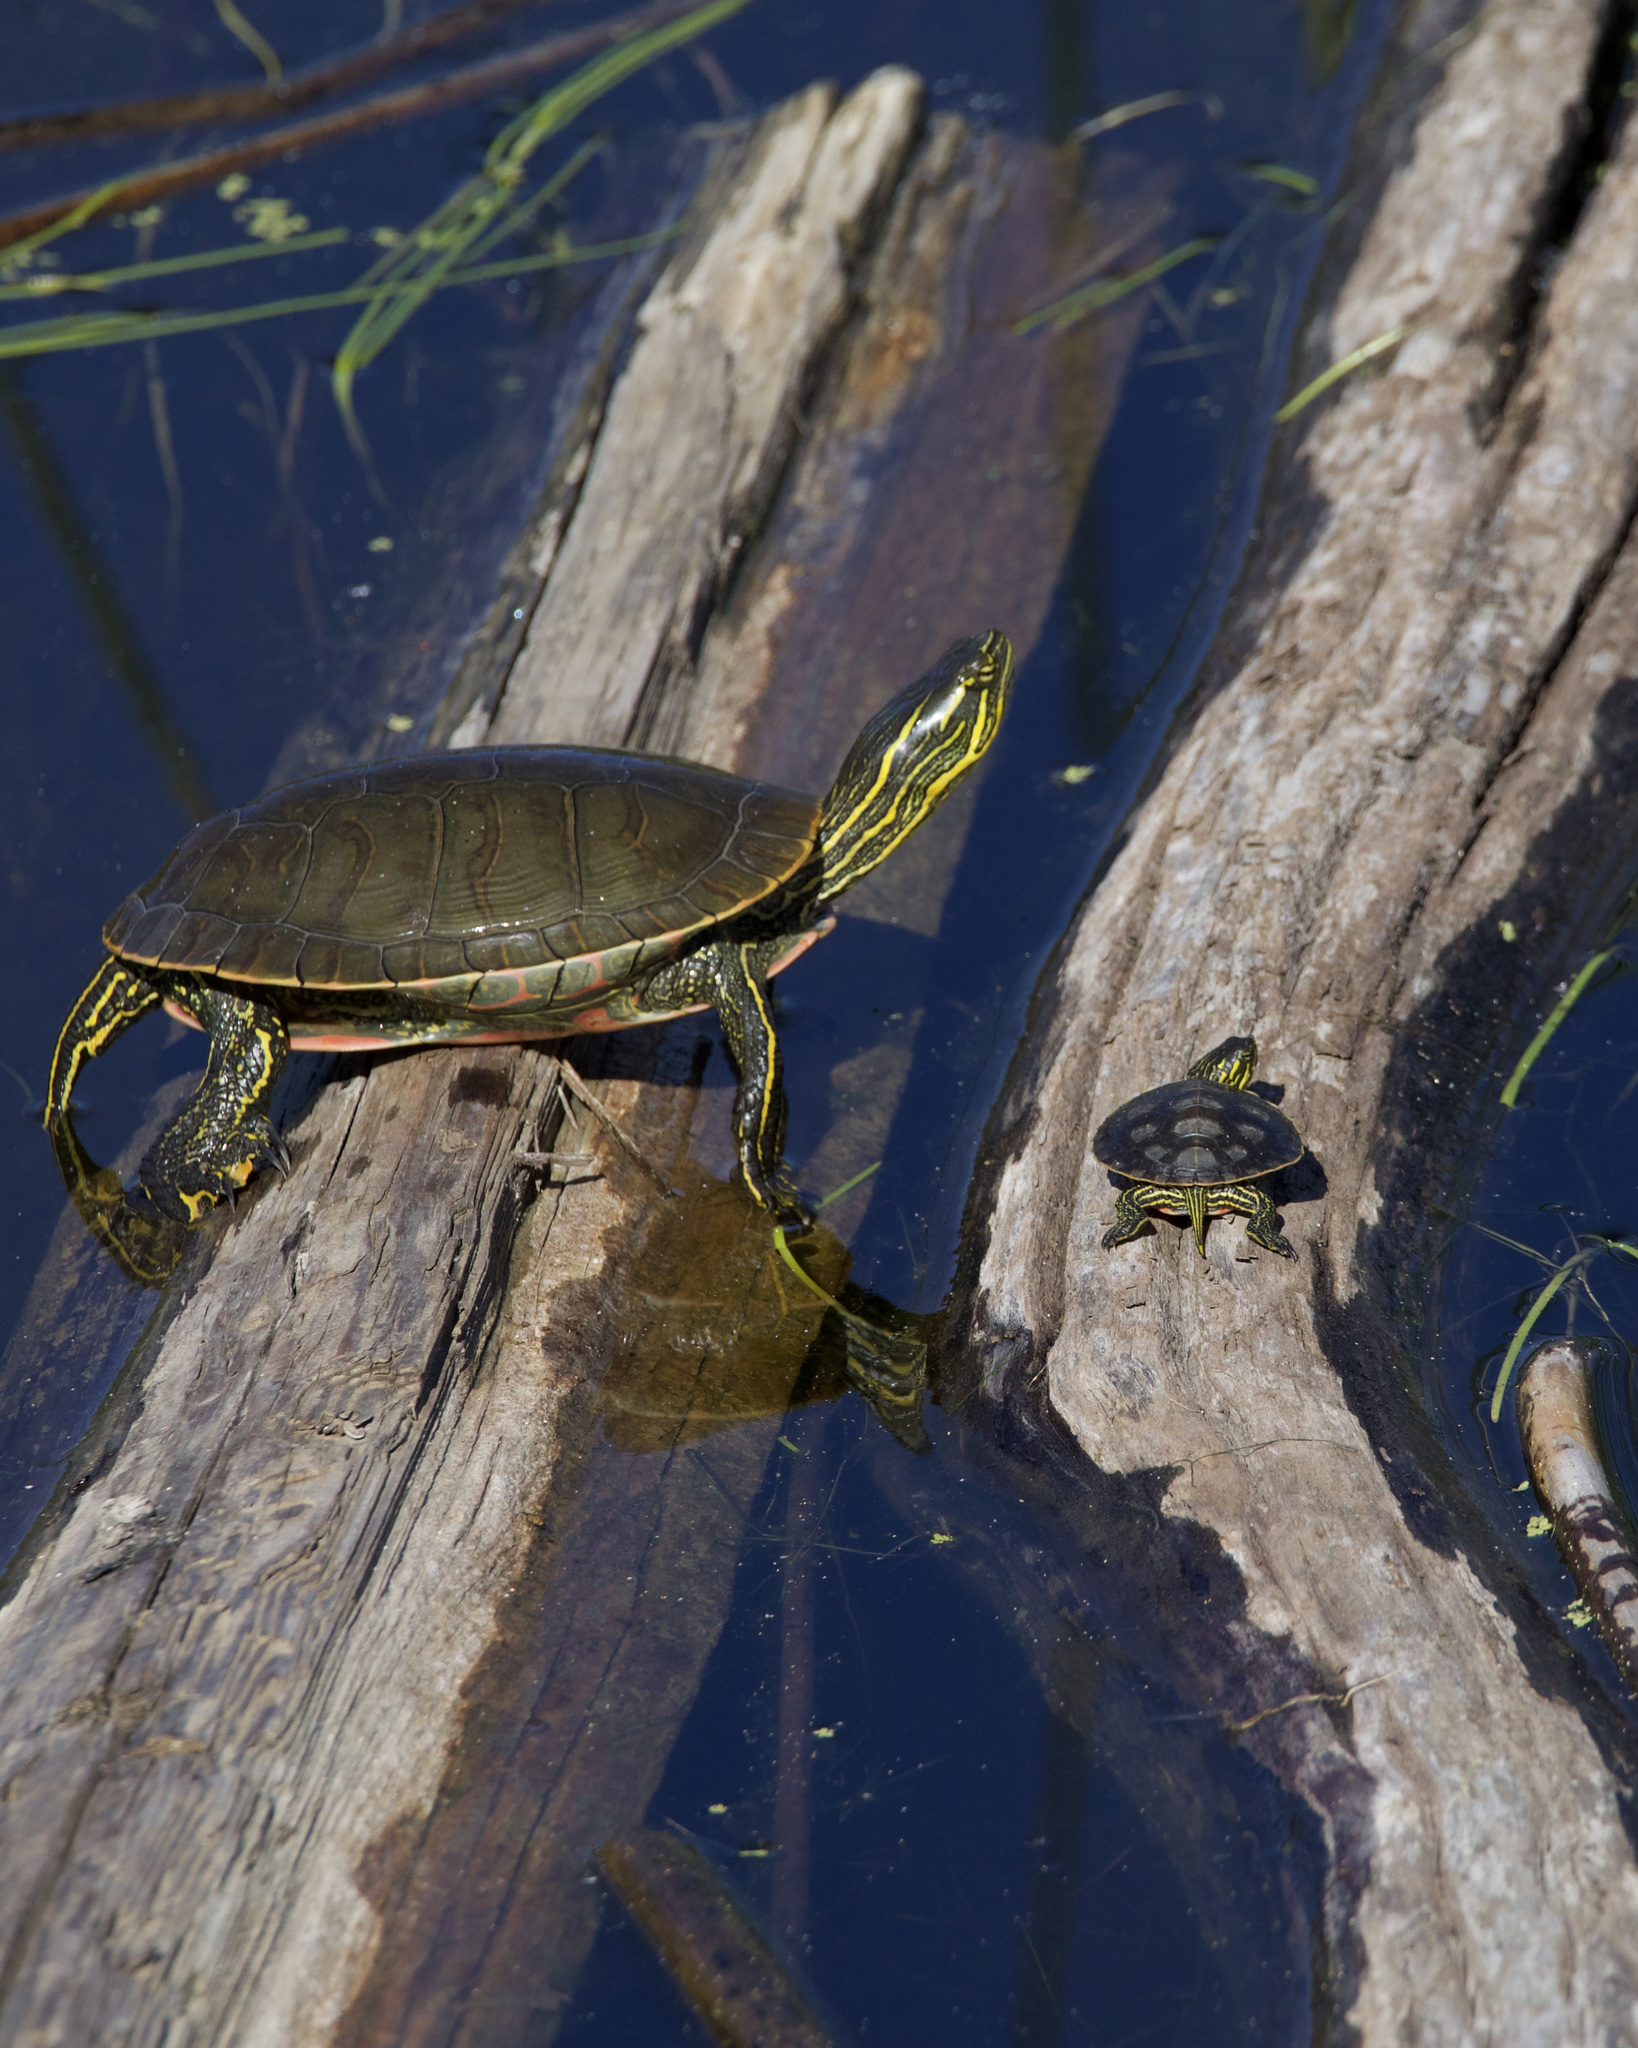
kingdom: Animalia
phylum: Chordata
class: Testudines
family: Emydidae
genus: Chrysemys
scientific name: Chrysemys picta
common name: Painted turtle
